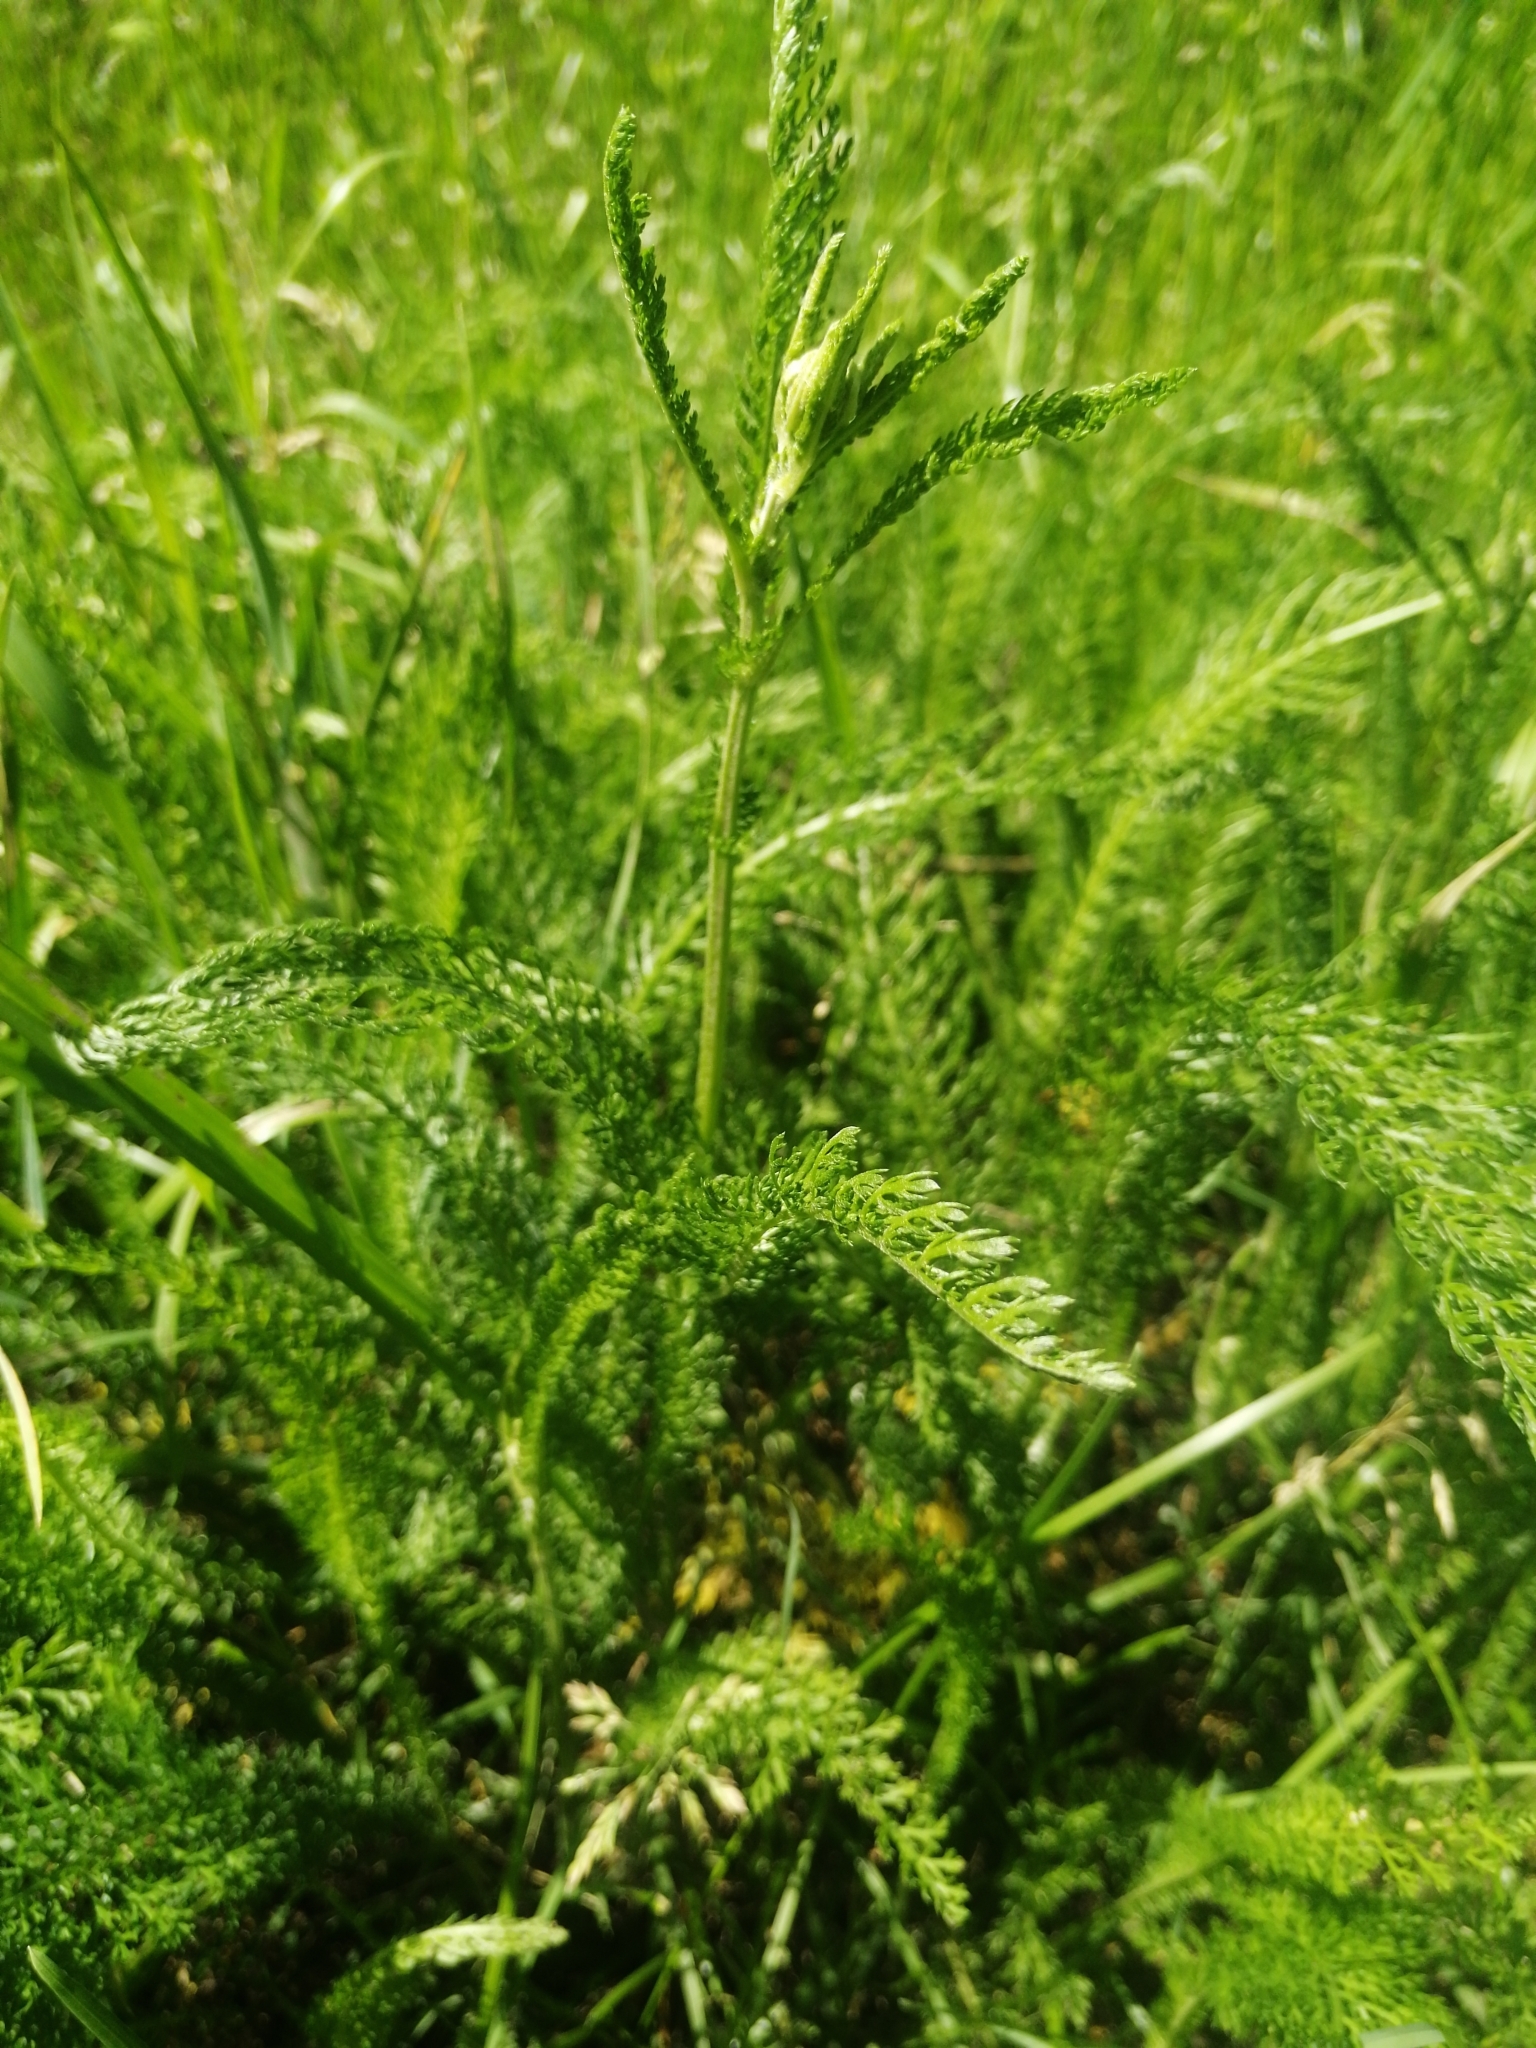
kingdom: Plantae
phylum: Tracheophyta
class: Magnoliopsida
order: Asterales
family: Asteraceae
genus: Achillea
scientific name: Achillea millefolium
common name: Yarrow
